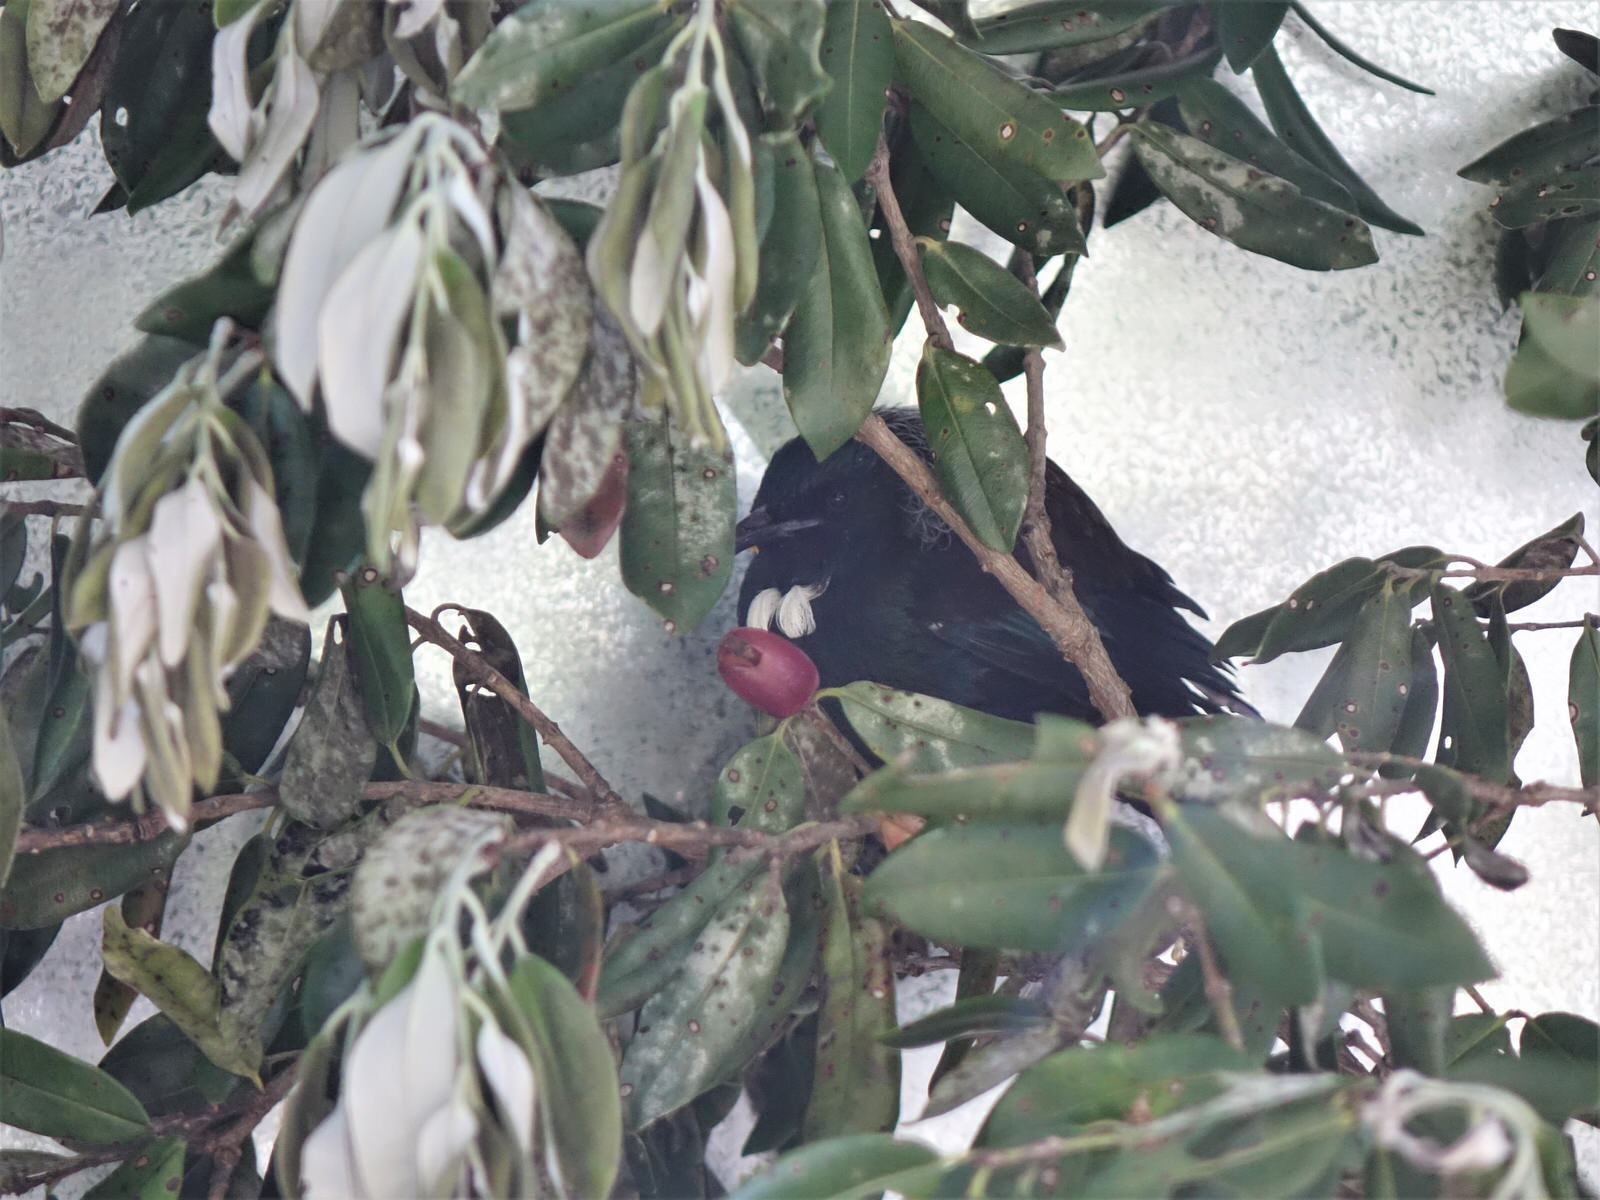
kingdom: Animalia
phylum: Chordata
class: Aves
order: Passeriformes
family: Meliphagidae
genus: Prosthemadera
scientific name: Prosthemadera novaeseelandiae
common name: Tui
